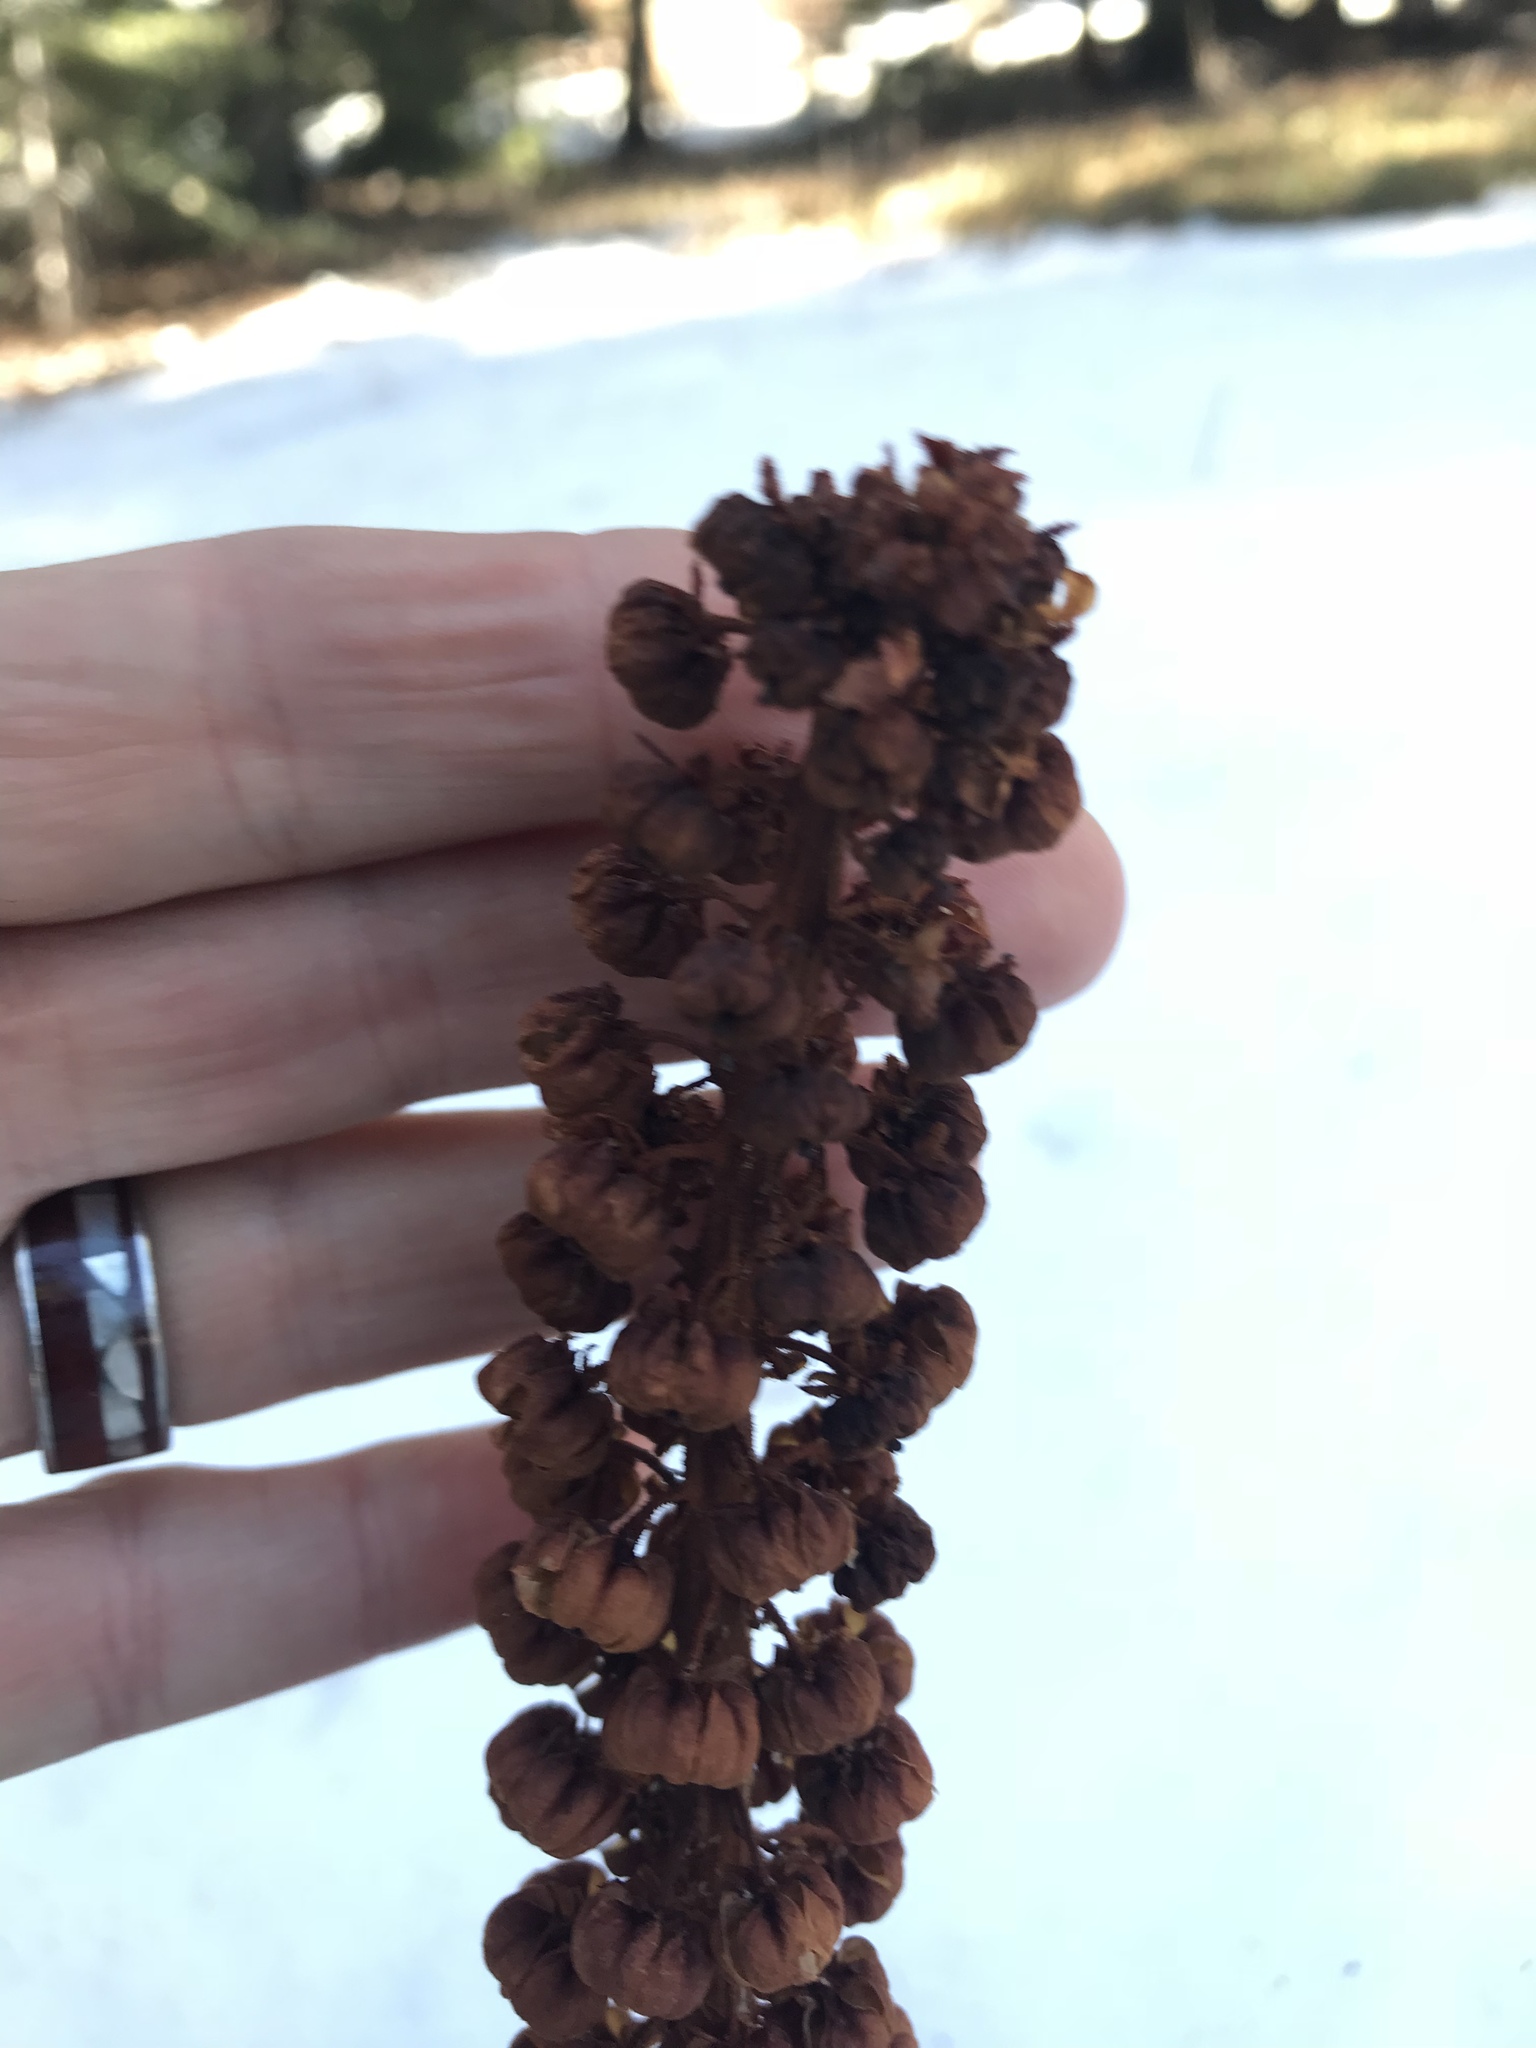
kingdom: Plantae
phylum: Tracheophyta
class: Magnoliopsida
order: Ericales
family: Ericaceae
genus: Pterospora
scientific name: Pterospora andromedea
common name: Giant bird's-nest
